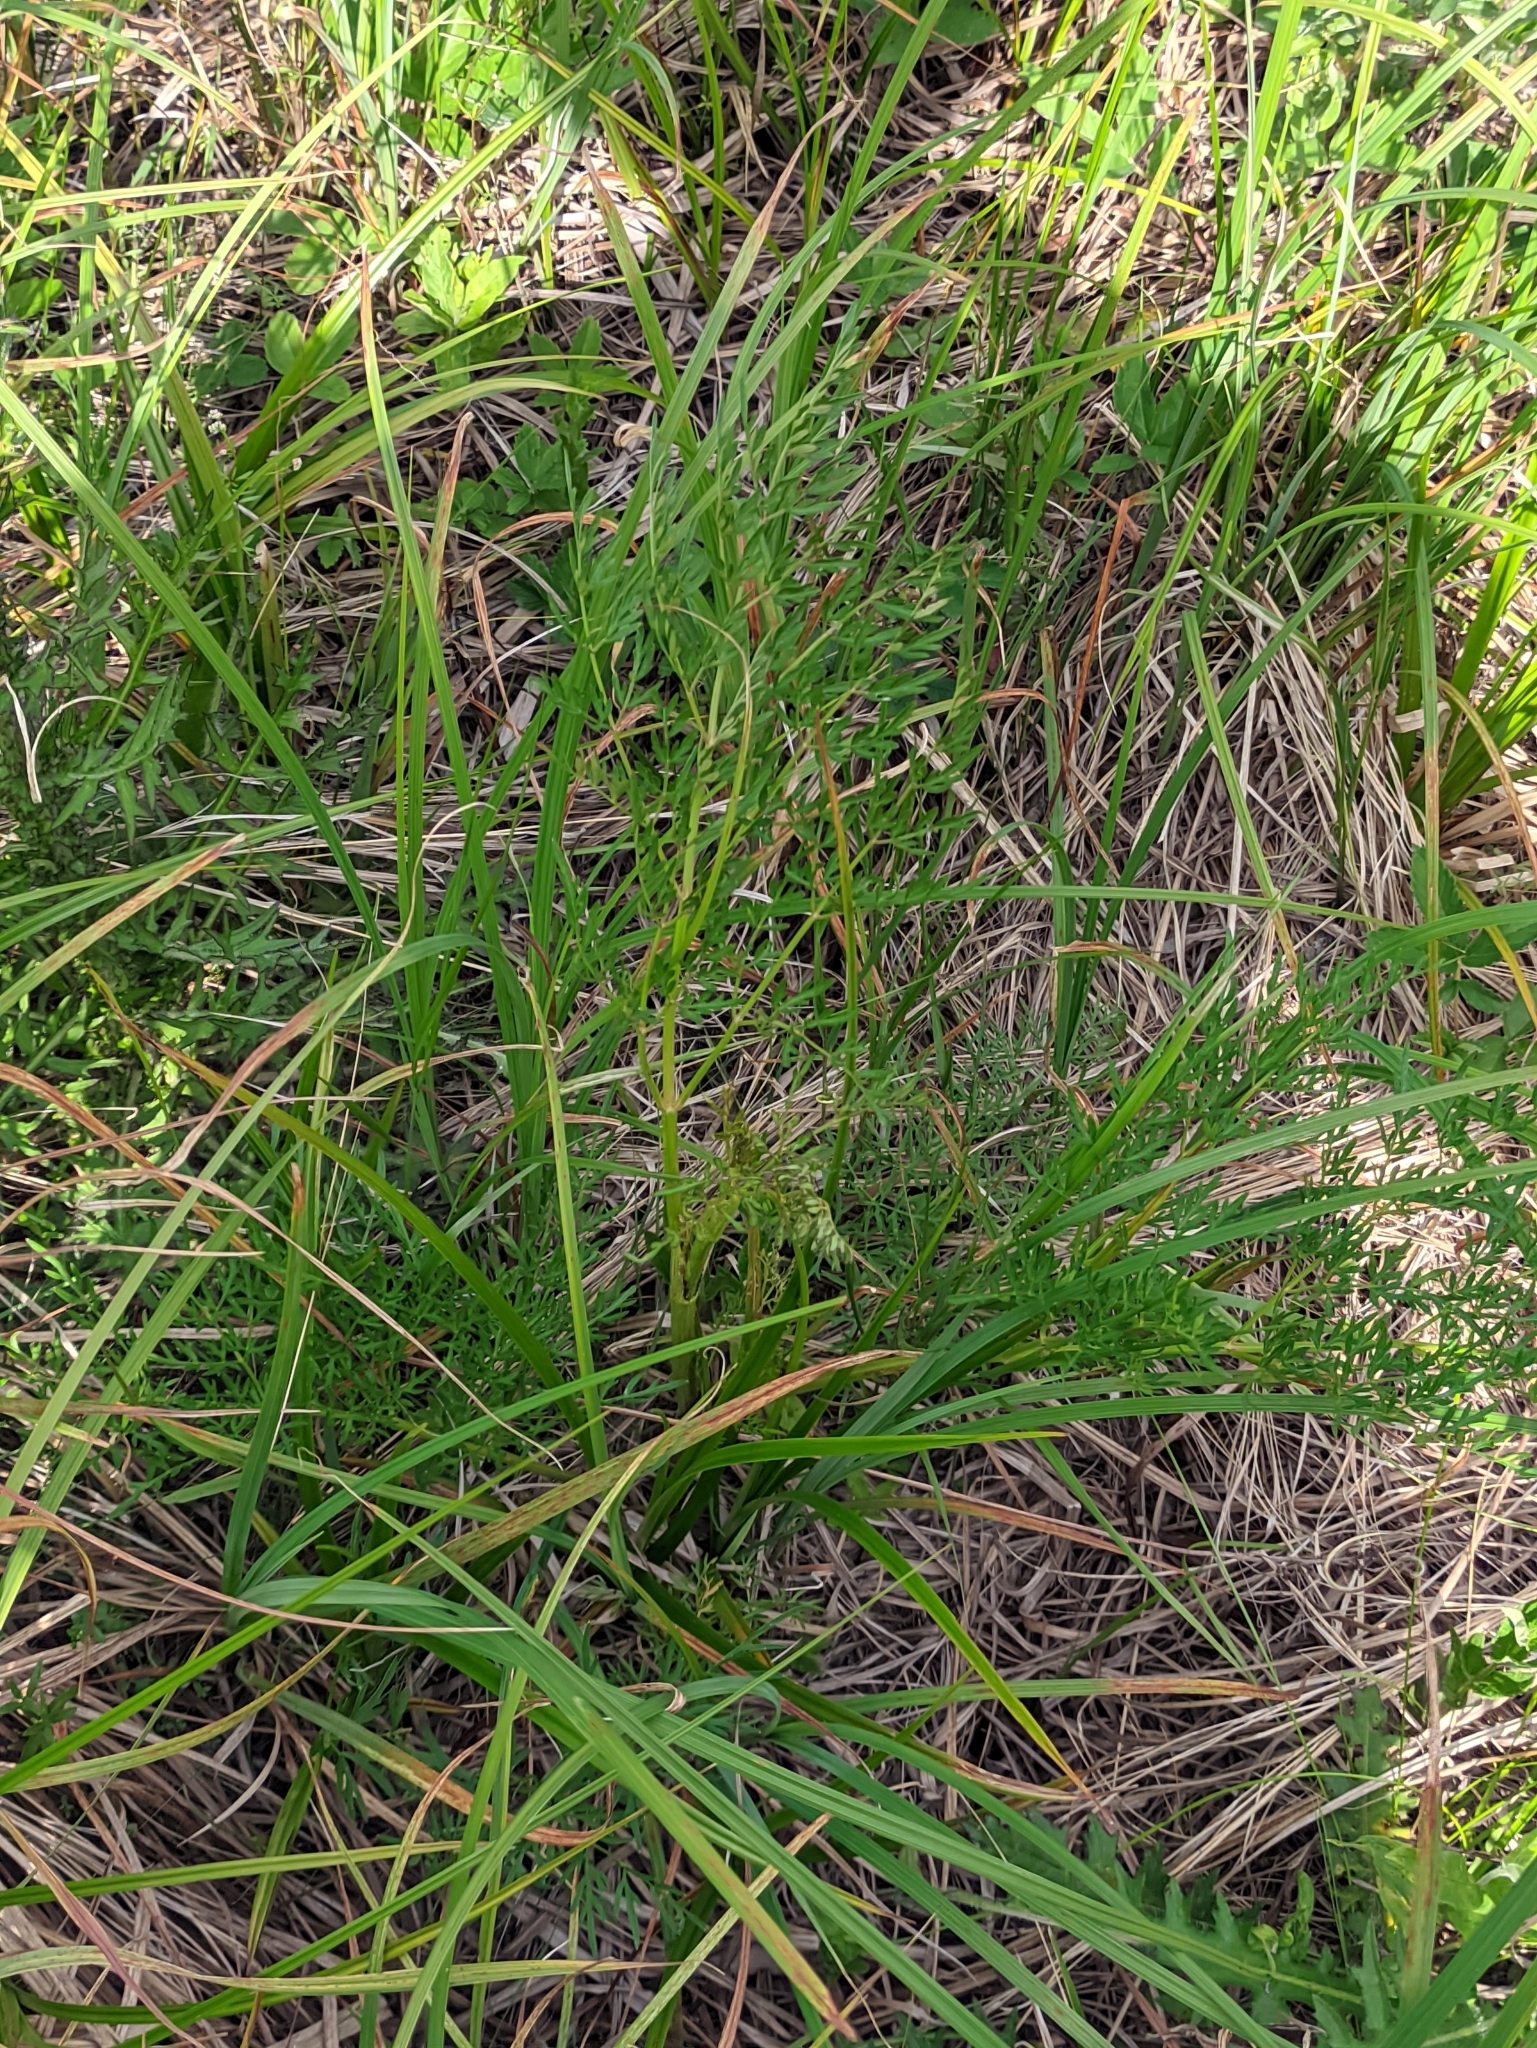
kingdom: Plantae
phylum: Tracheophyta
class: Magnoliopsida
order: Apiales
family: Apiaceae
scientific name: Apiaceae
